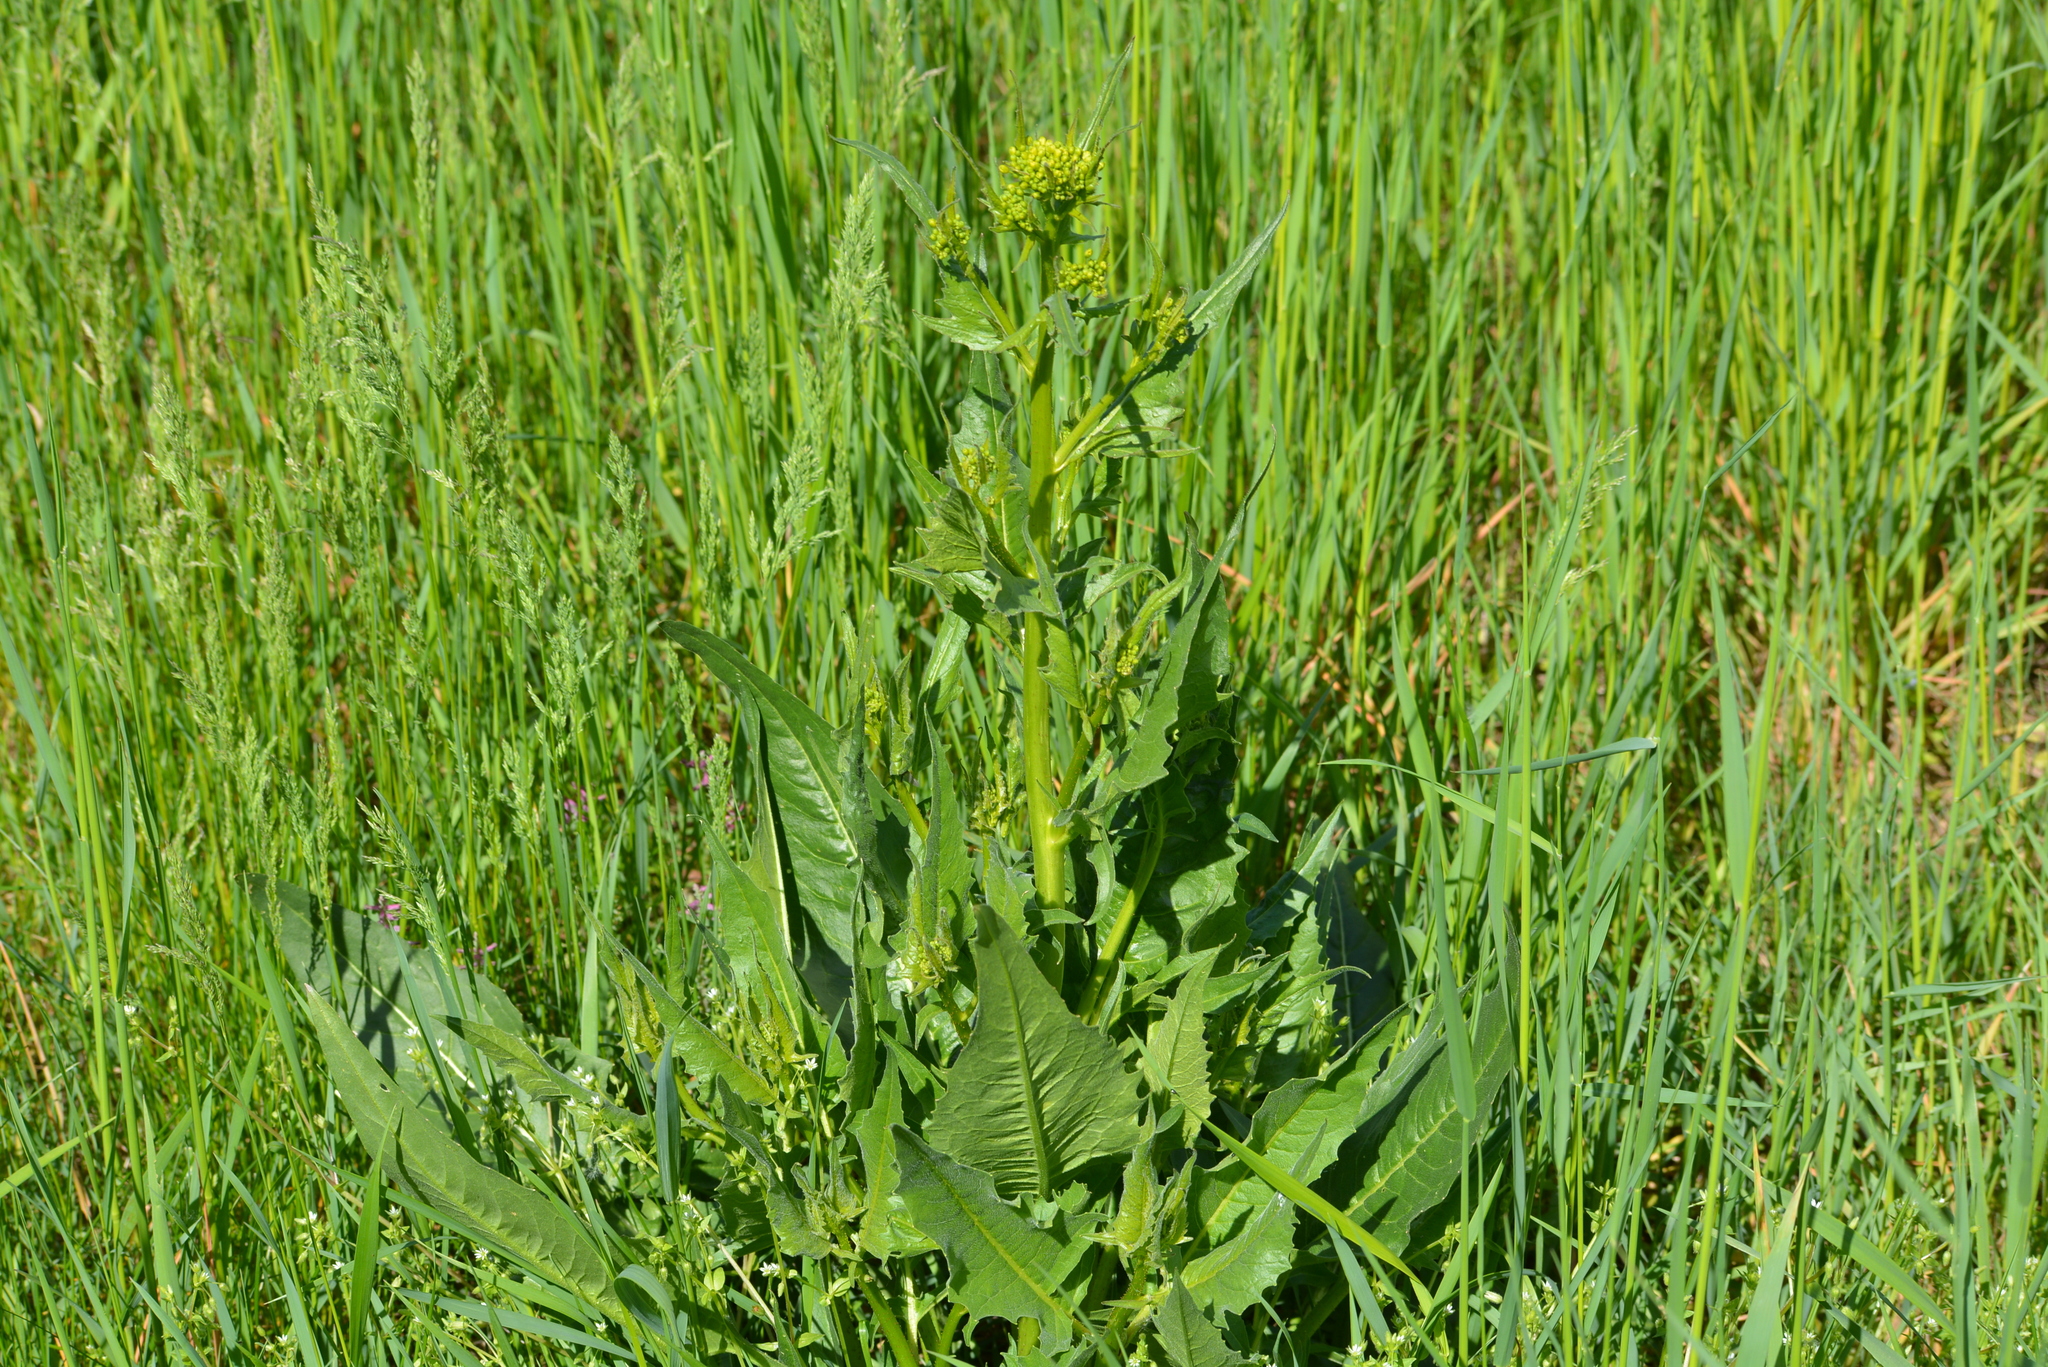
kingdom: Plantae
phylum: Tracheophyta
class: Magnoliopsida
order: Brassicales
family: Brassicaceae
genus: Bunias
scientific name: Bunias orientalis
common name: Warty-cabbage
